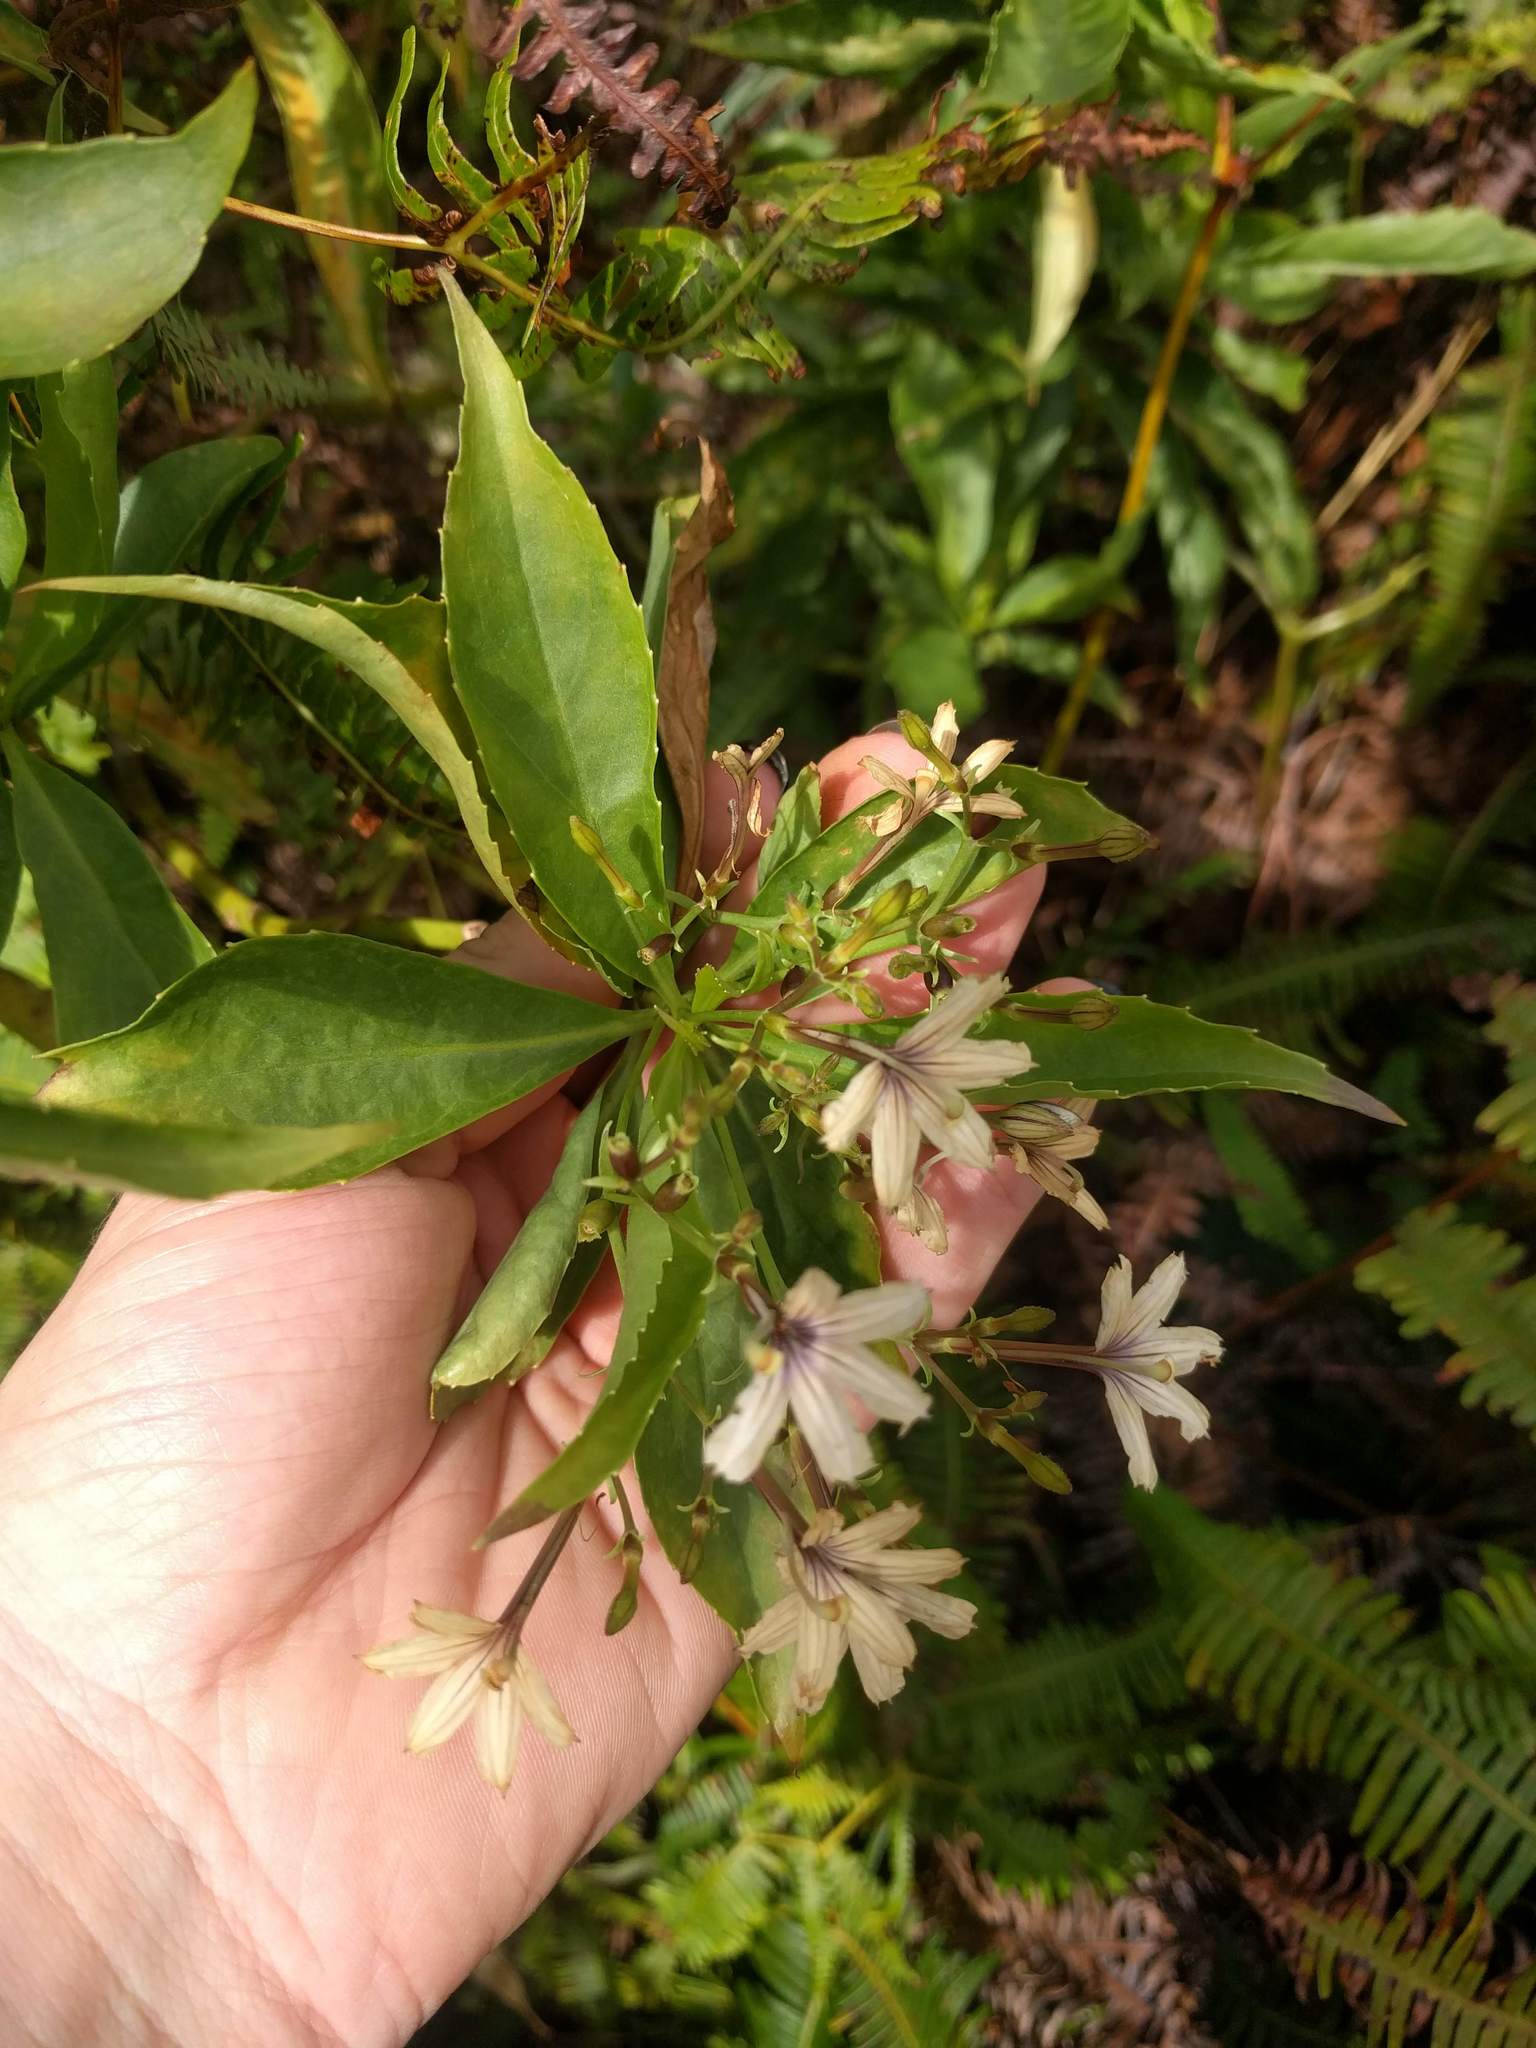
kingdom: Plantae
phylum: Tracheophyta
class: Magnoliopsida
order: Asterales
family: Goodeniaceae
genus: Scaevola
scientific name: Scaevola gaudichaudiana
